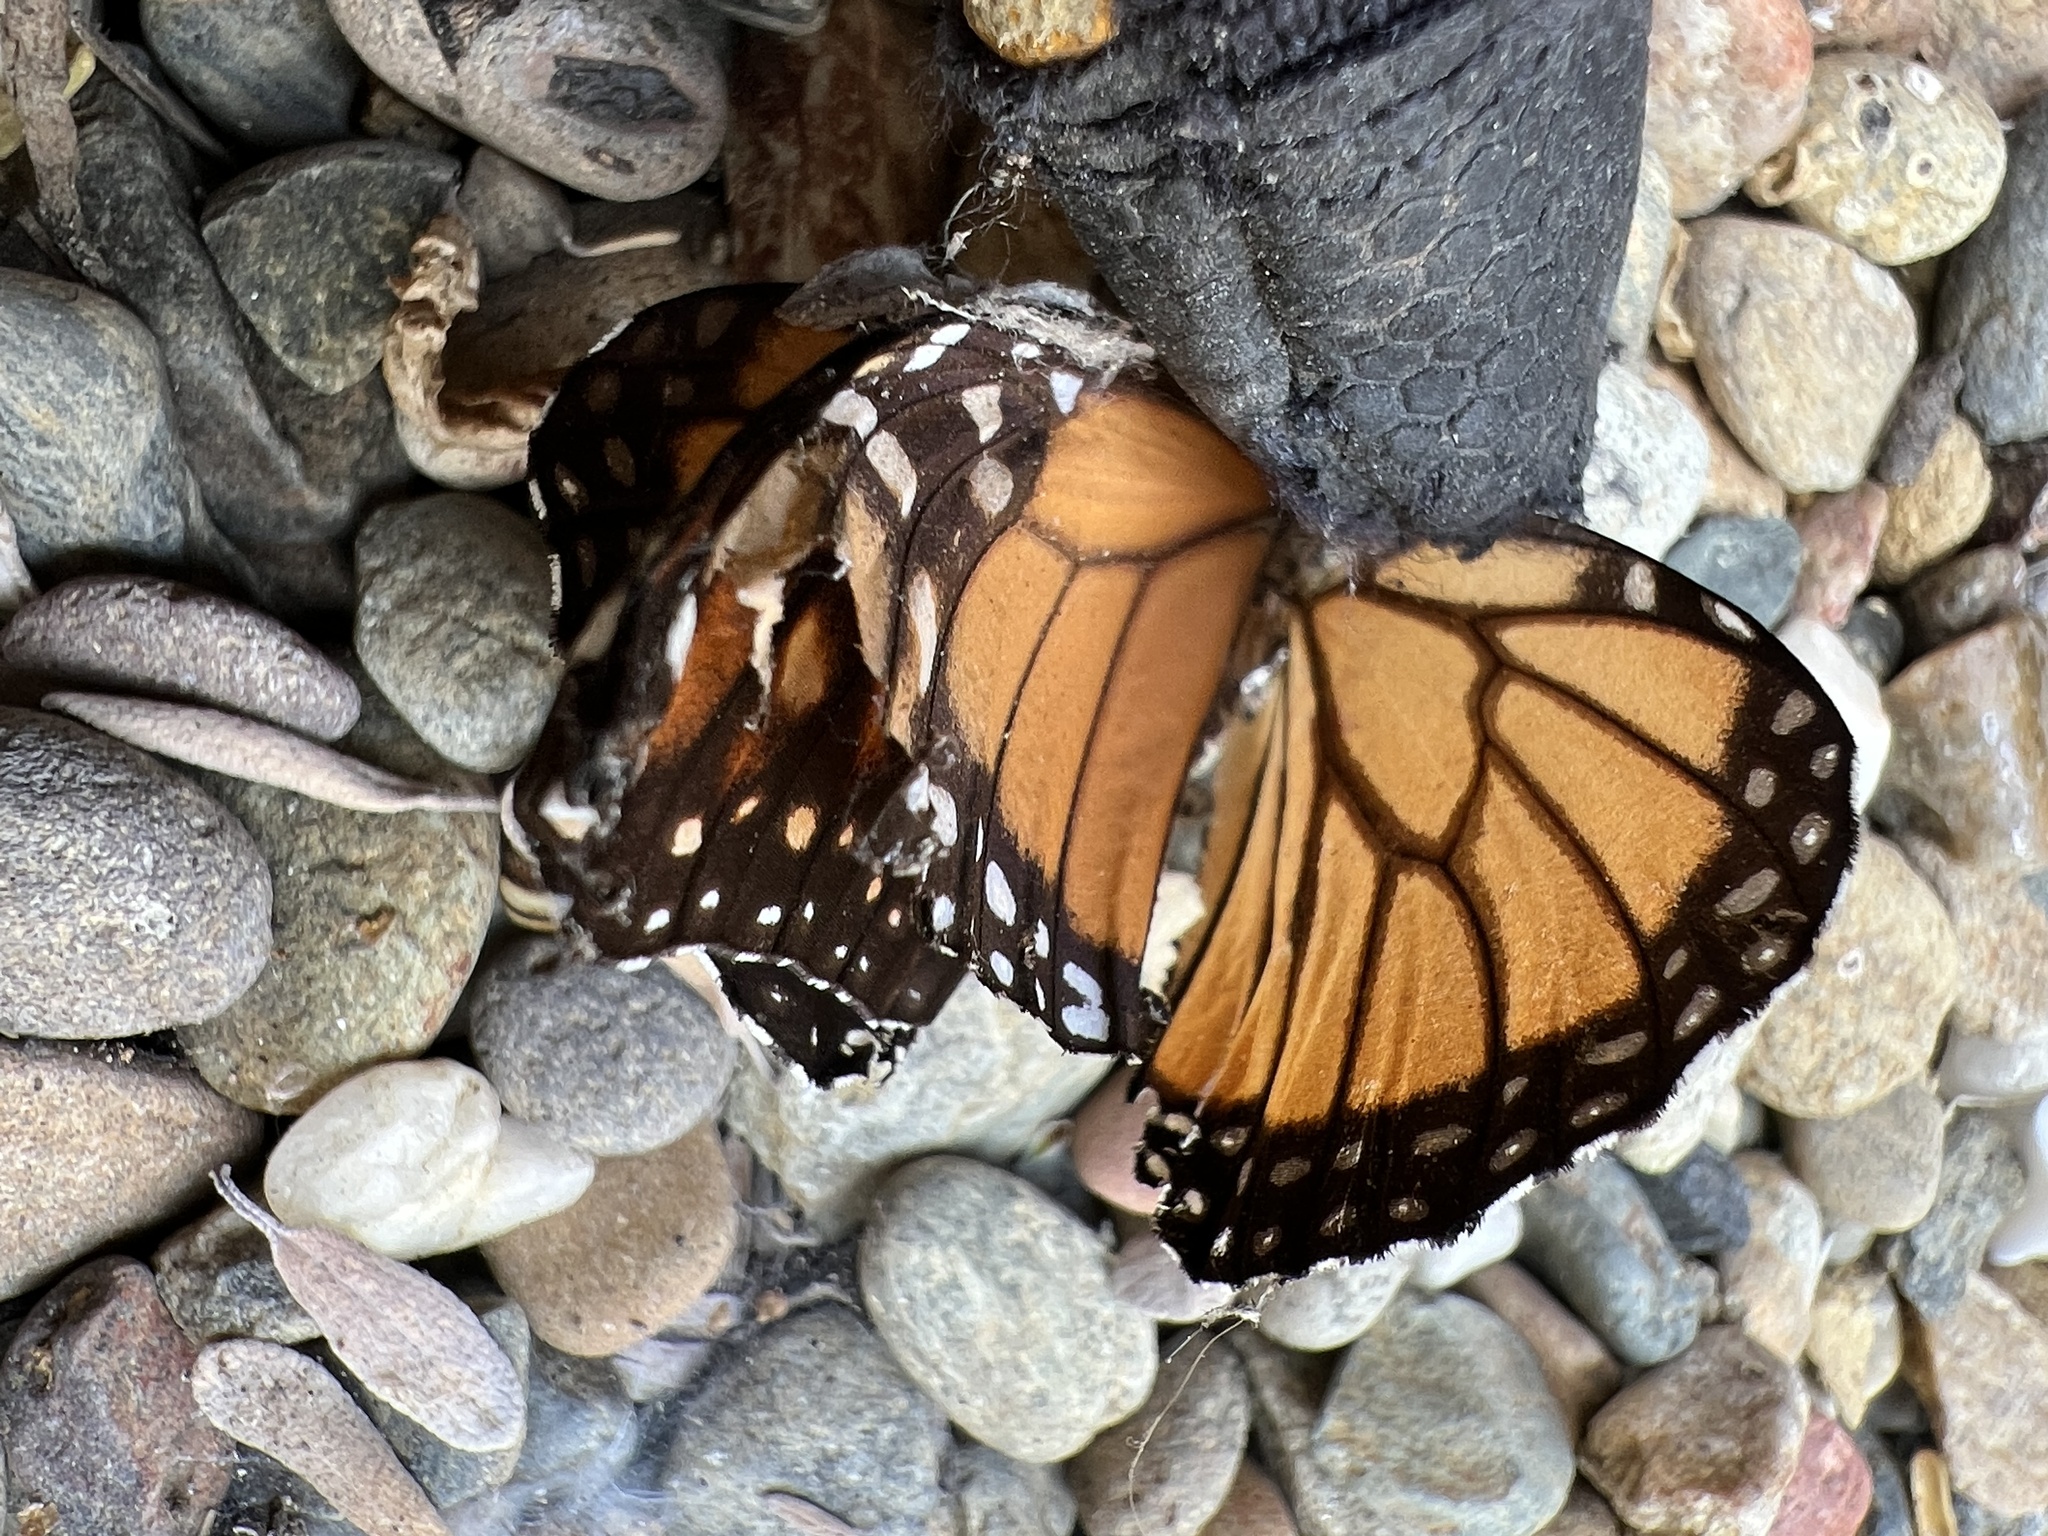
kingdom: Animalia
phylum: Arthropoda
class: Insecta
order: Lepidoptera
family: Nymphalidae
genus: Danaus
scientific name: Danaus plexippus
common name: Monarch
